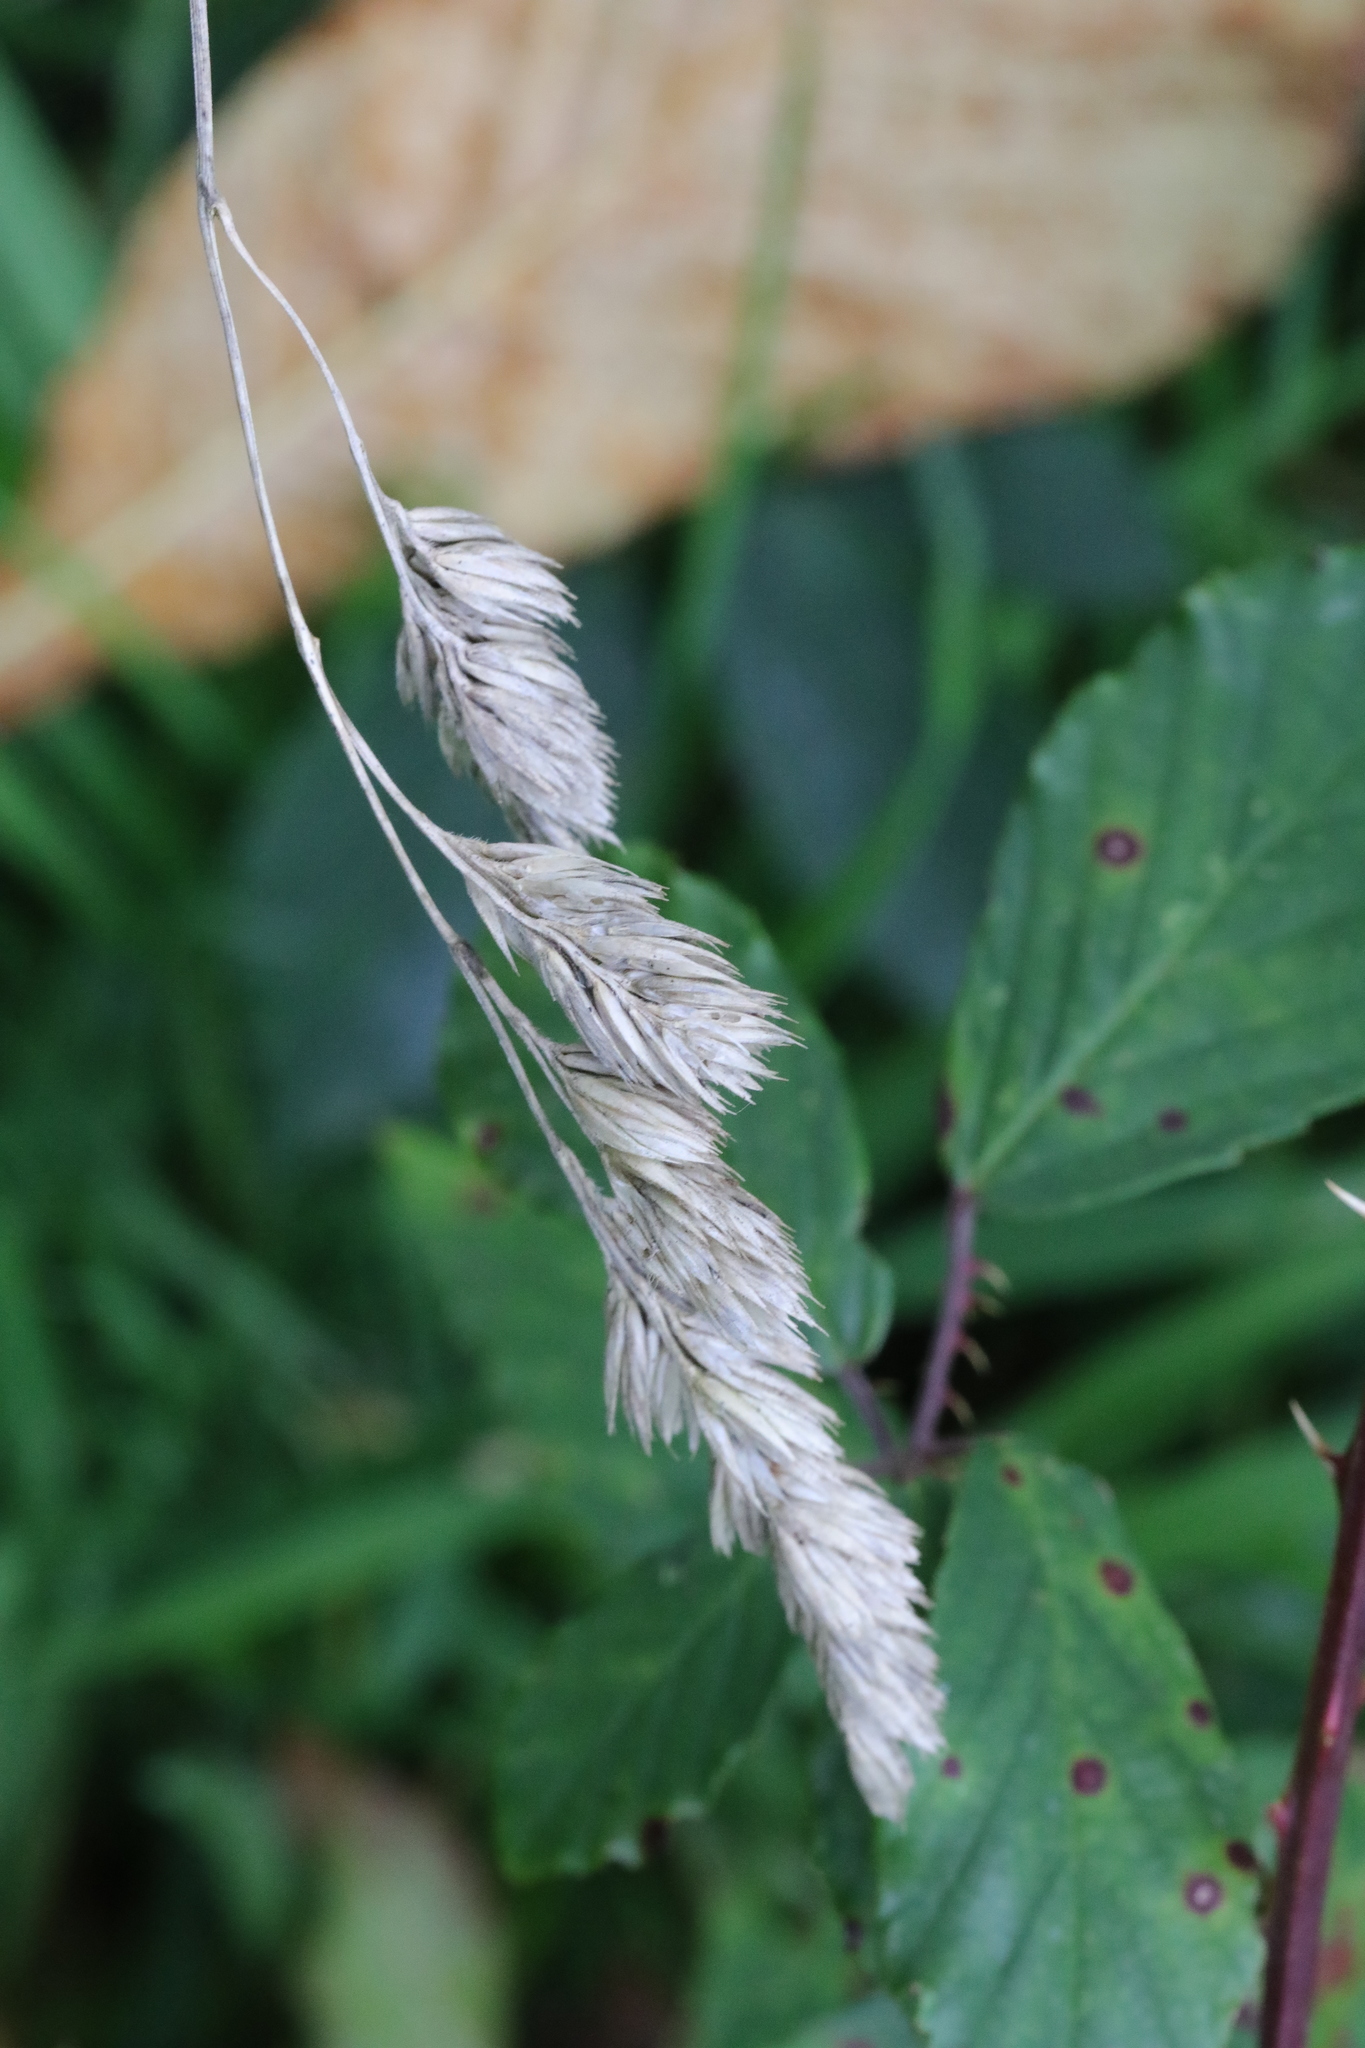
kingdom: Plantae
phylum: Tracheophyta
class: Liliopsida
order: Poales
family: Poaceae
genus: Dactylis
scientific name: Dactylis glomerata
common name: Orchardgrass
